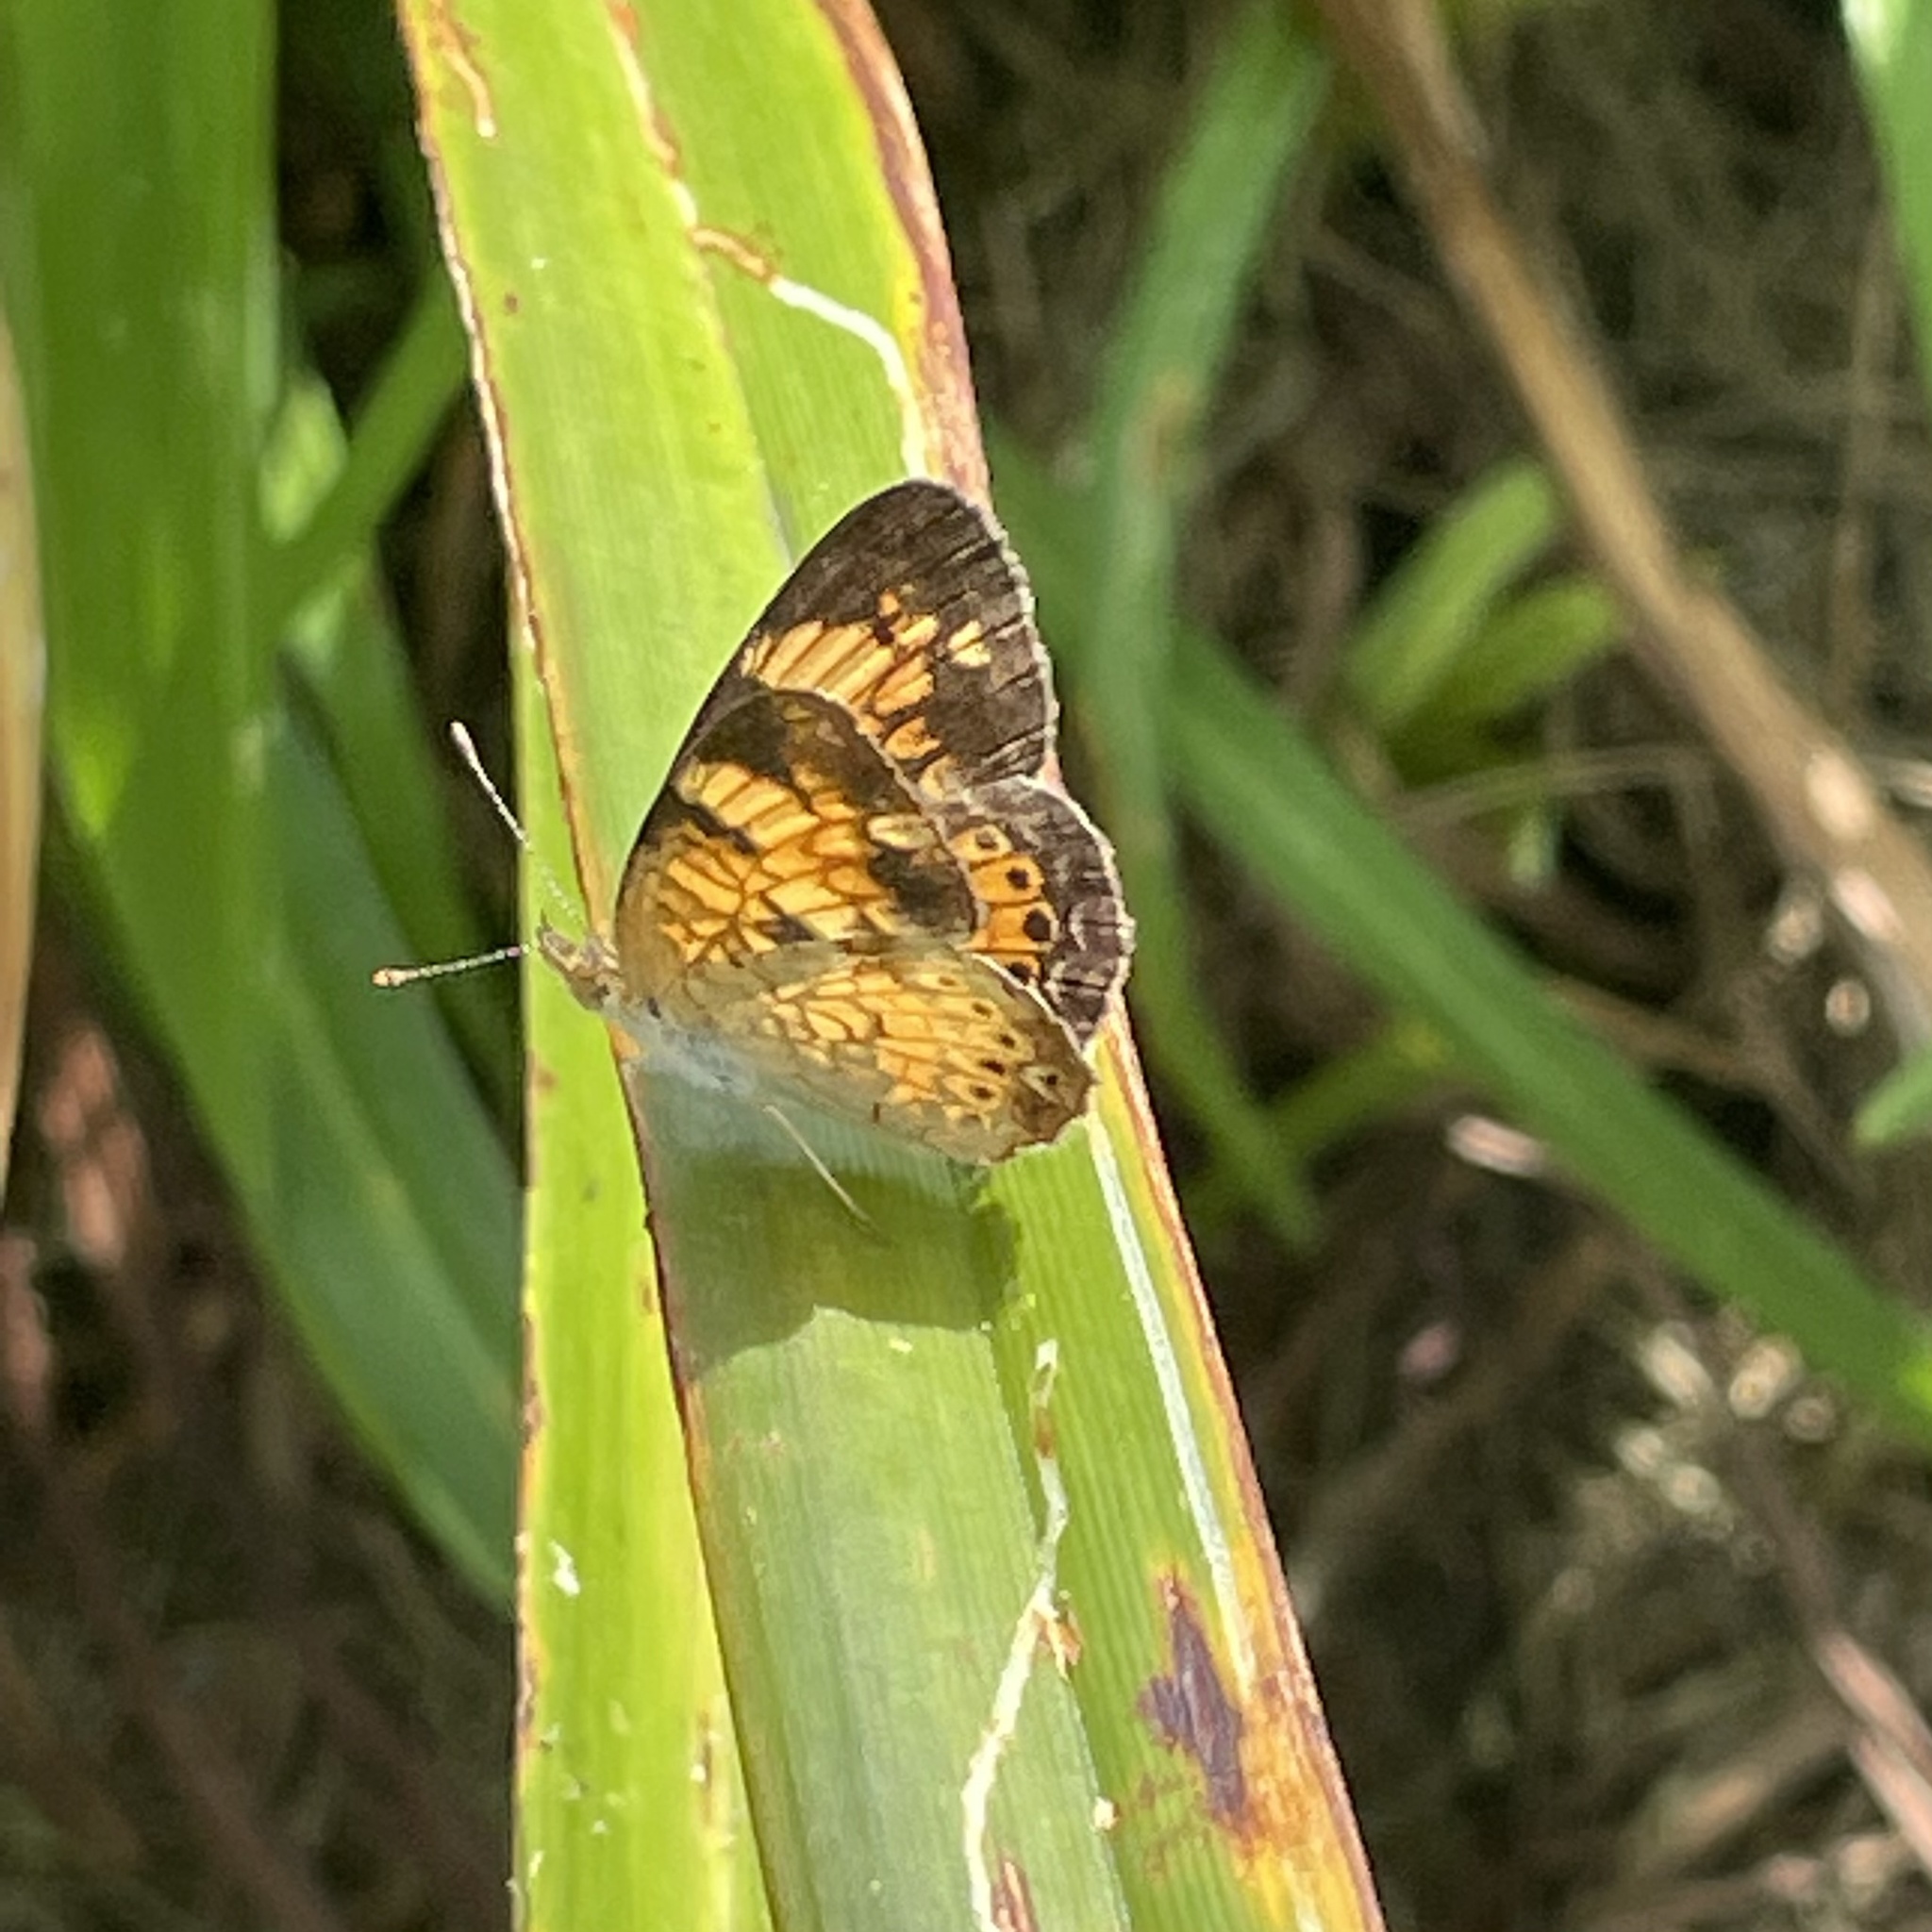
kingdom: Animalia
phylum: Arthropoda
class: Insecta
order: Lepidoptera
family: Nymphalidae
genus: Phyciodes
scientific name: Phyciodes tharos
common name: Pearl crescent
